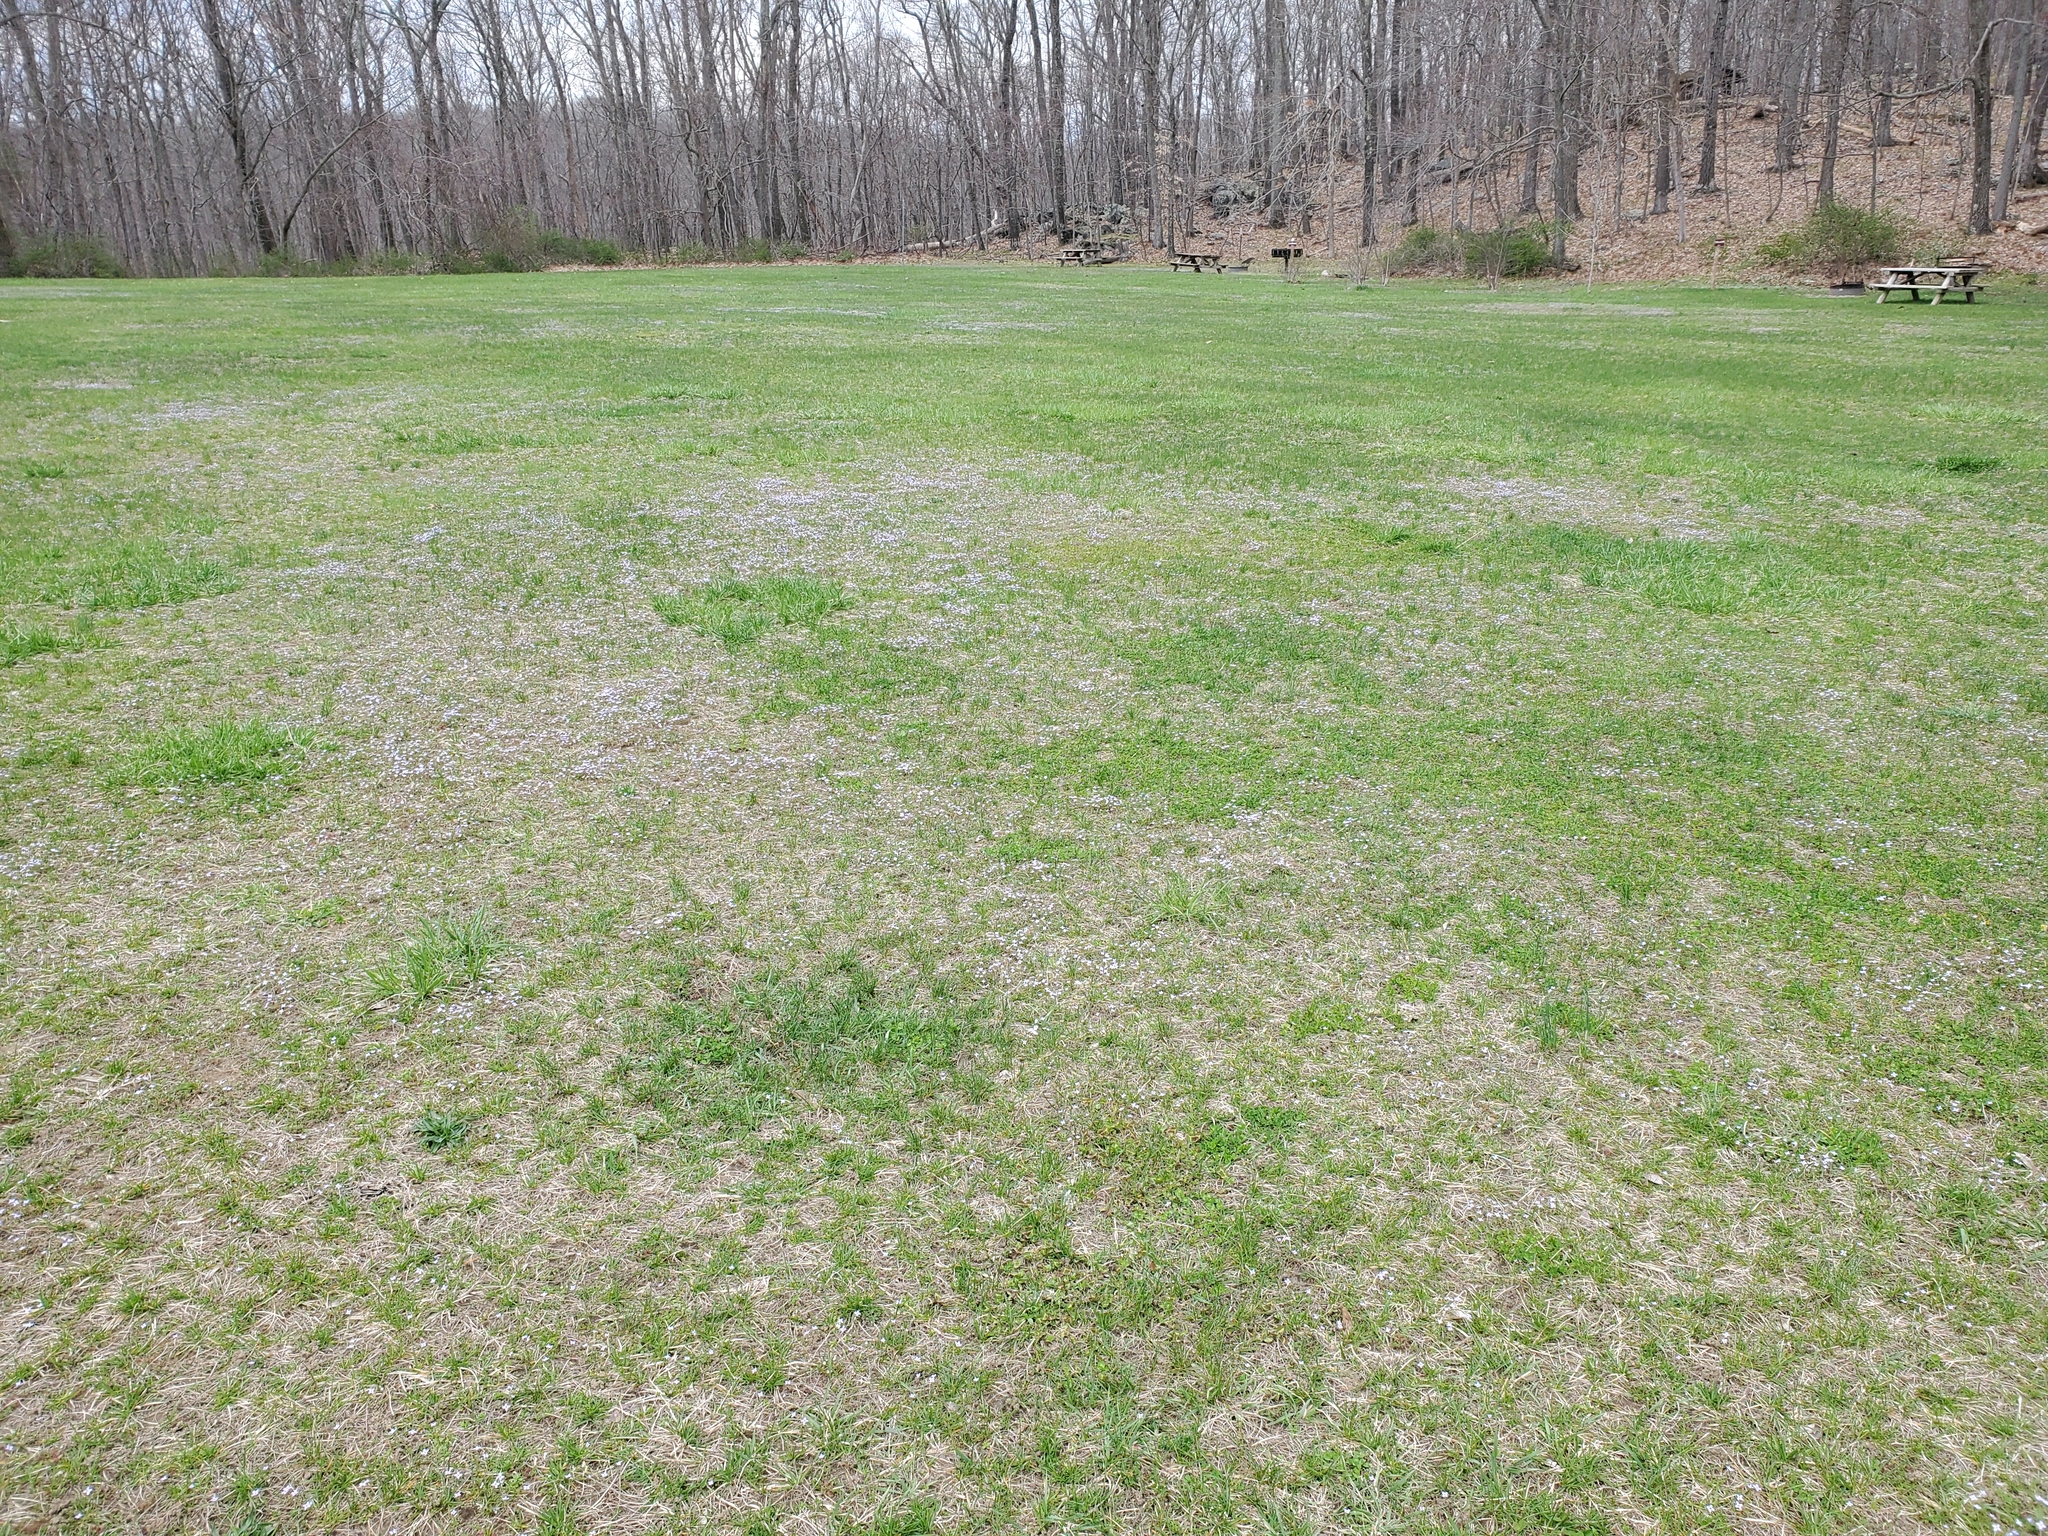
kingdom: Plantae
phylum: Tracheophyta
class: Magnoliopsida
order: Gentianales
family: Rubiaceae
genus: Houstonia
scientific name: Houstonia pusilla
